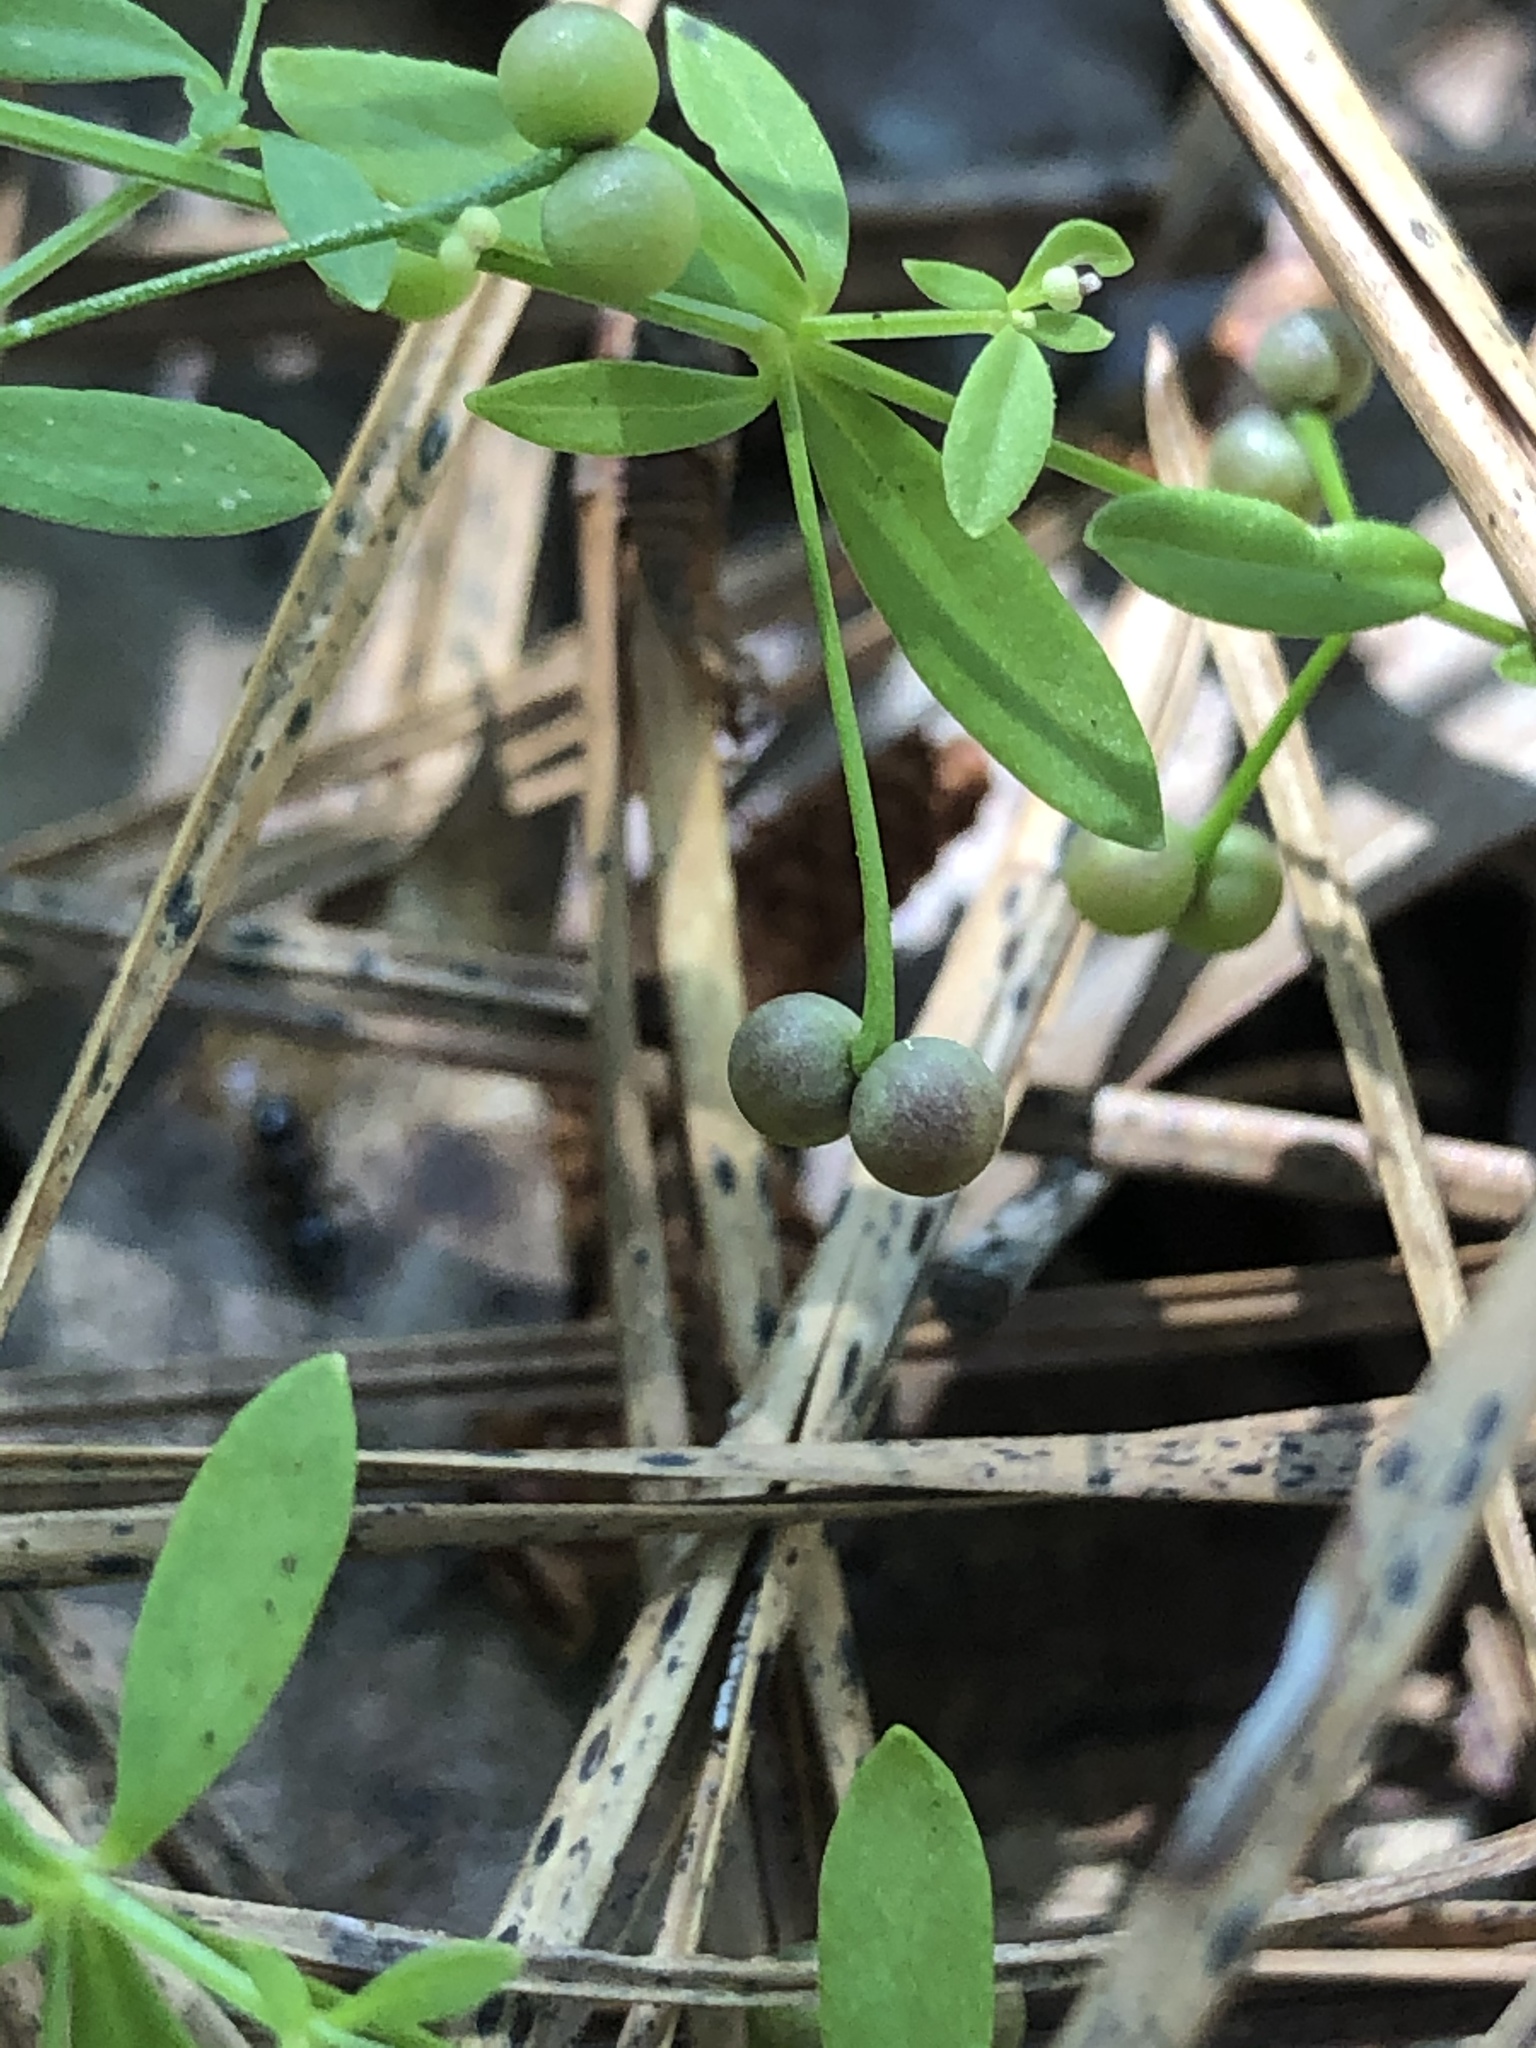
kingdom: Plantae
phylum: Tracheophyta
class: Magnoliopsida
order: Gentianales
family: Rubiaceae
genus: Galium
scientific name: Galium tinctorium
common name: Bedstraw
